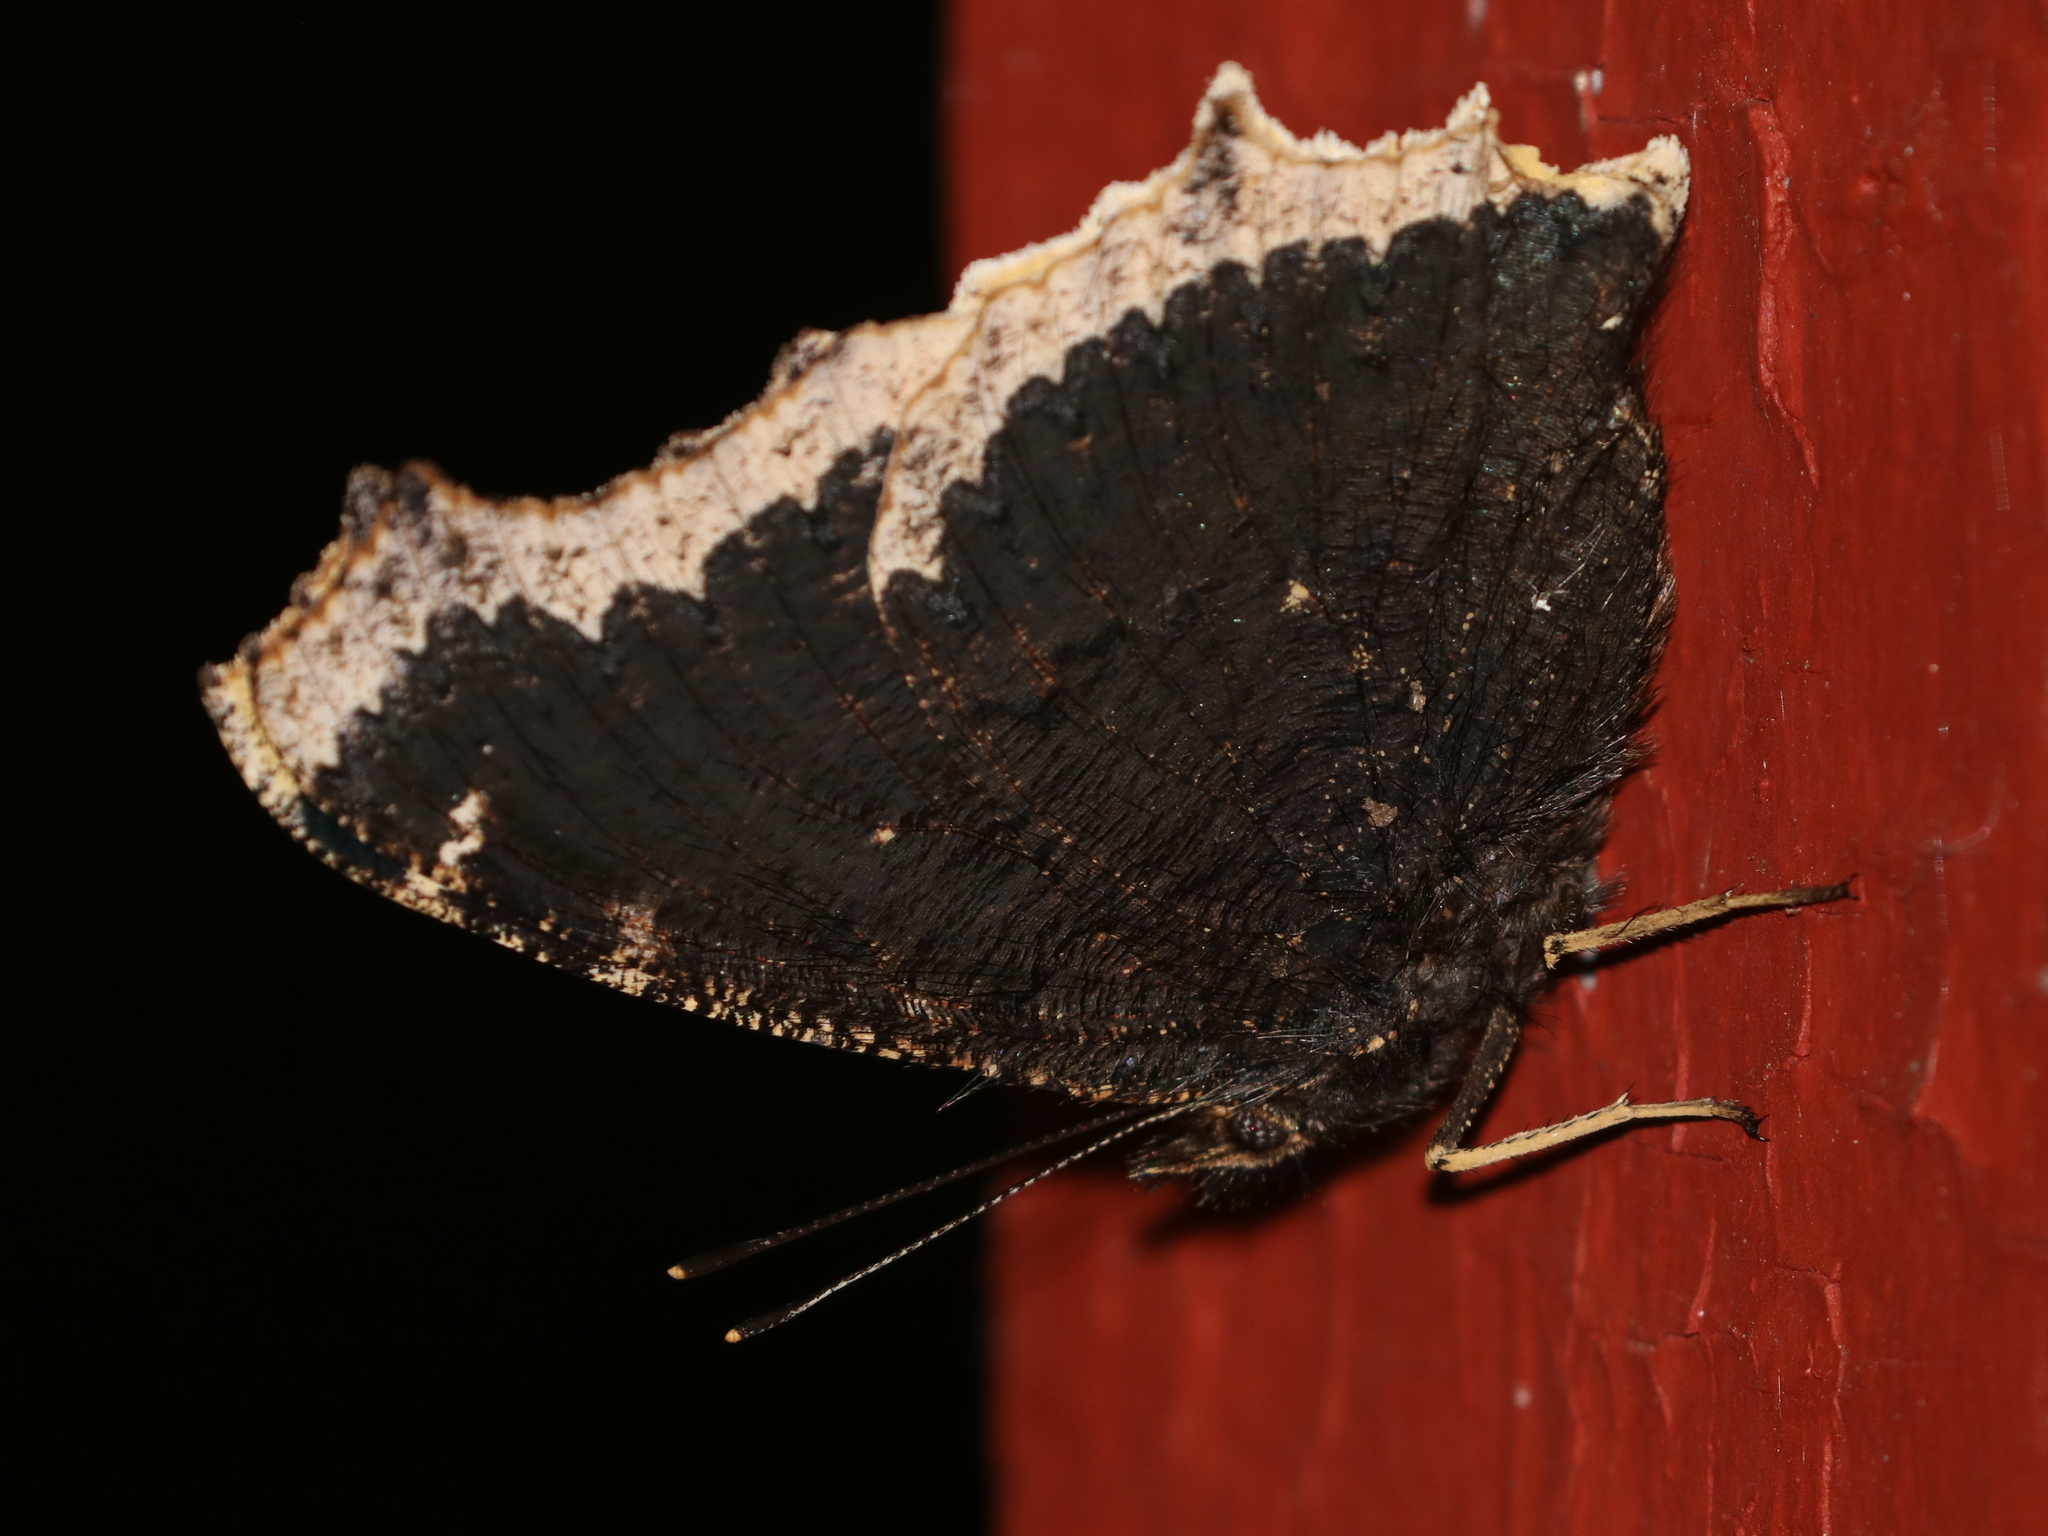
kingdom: Animalia
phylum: Arthropoda
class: Insecta
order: Lepidoptera
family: Nymphalidae
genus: Nymphalis
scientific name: Nymphalis antiopa
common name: Camberwell beauty
